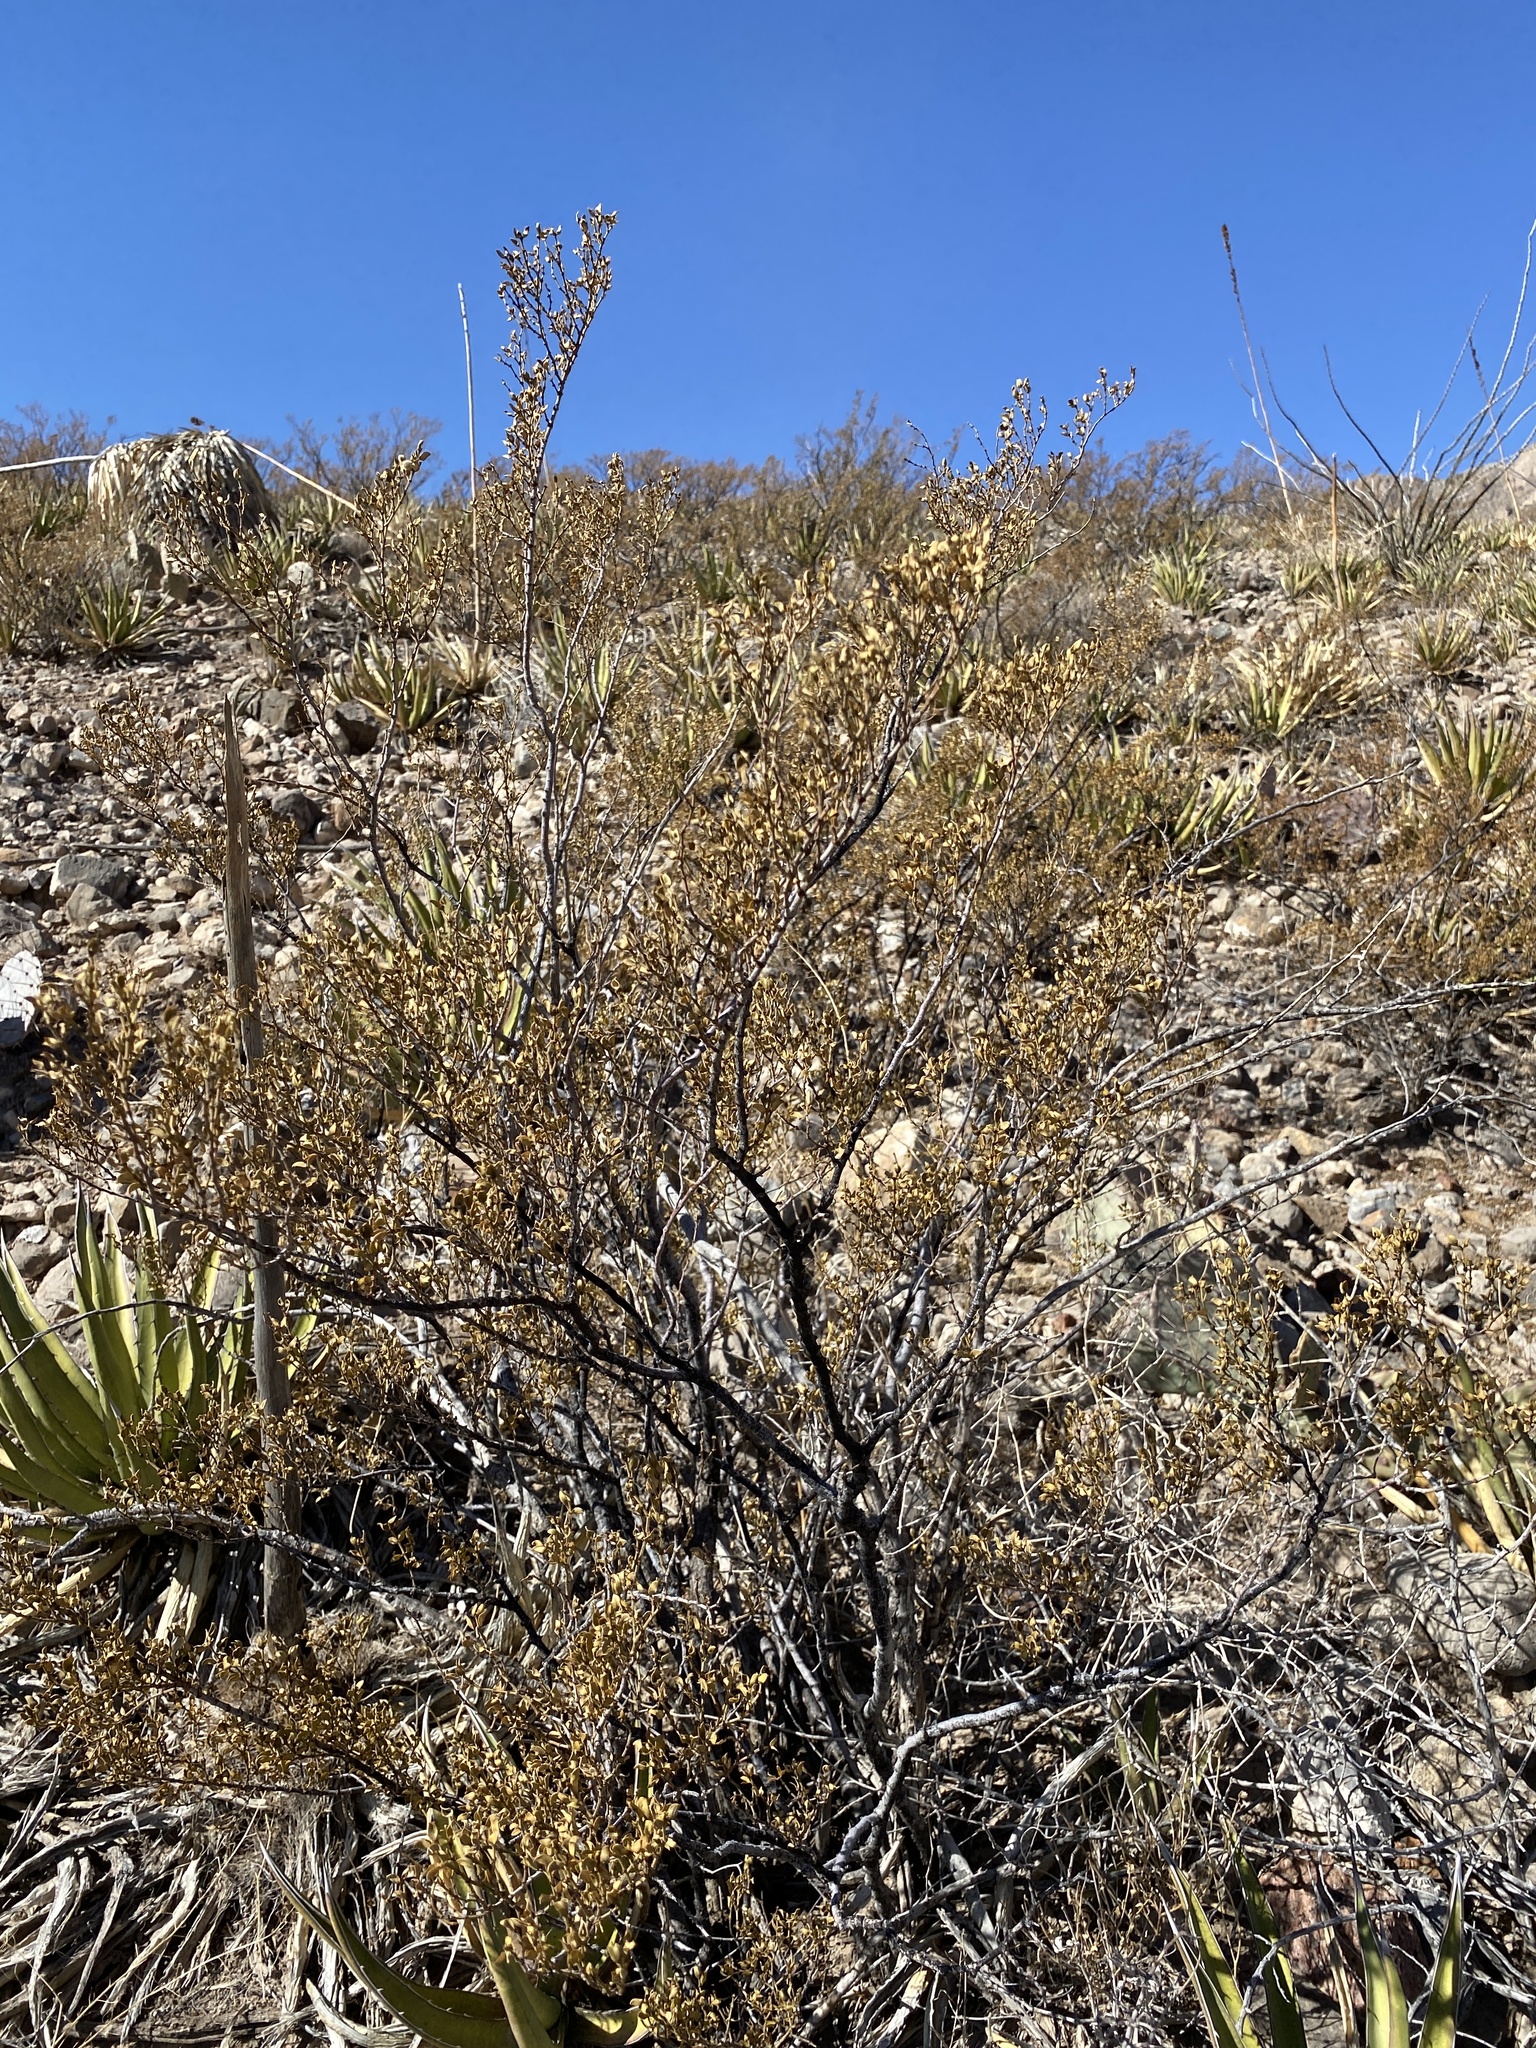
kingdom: Plantae
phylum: Tracheophyta
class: Magnoliopsida
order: Zygophyllales
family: Zygophyllaceae
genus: Larrea
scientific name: Larrea tridentata
